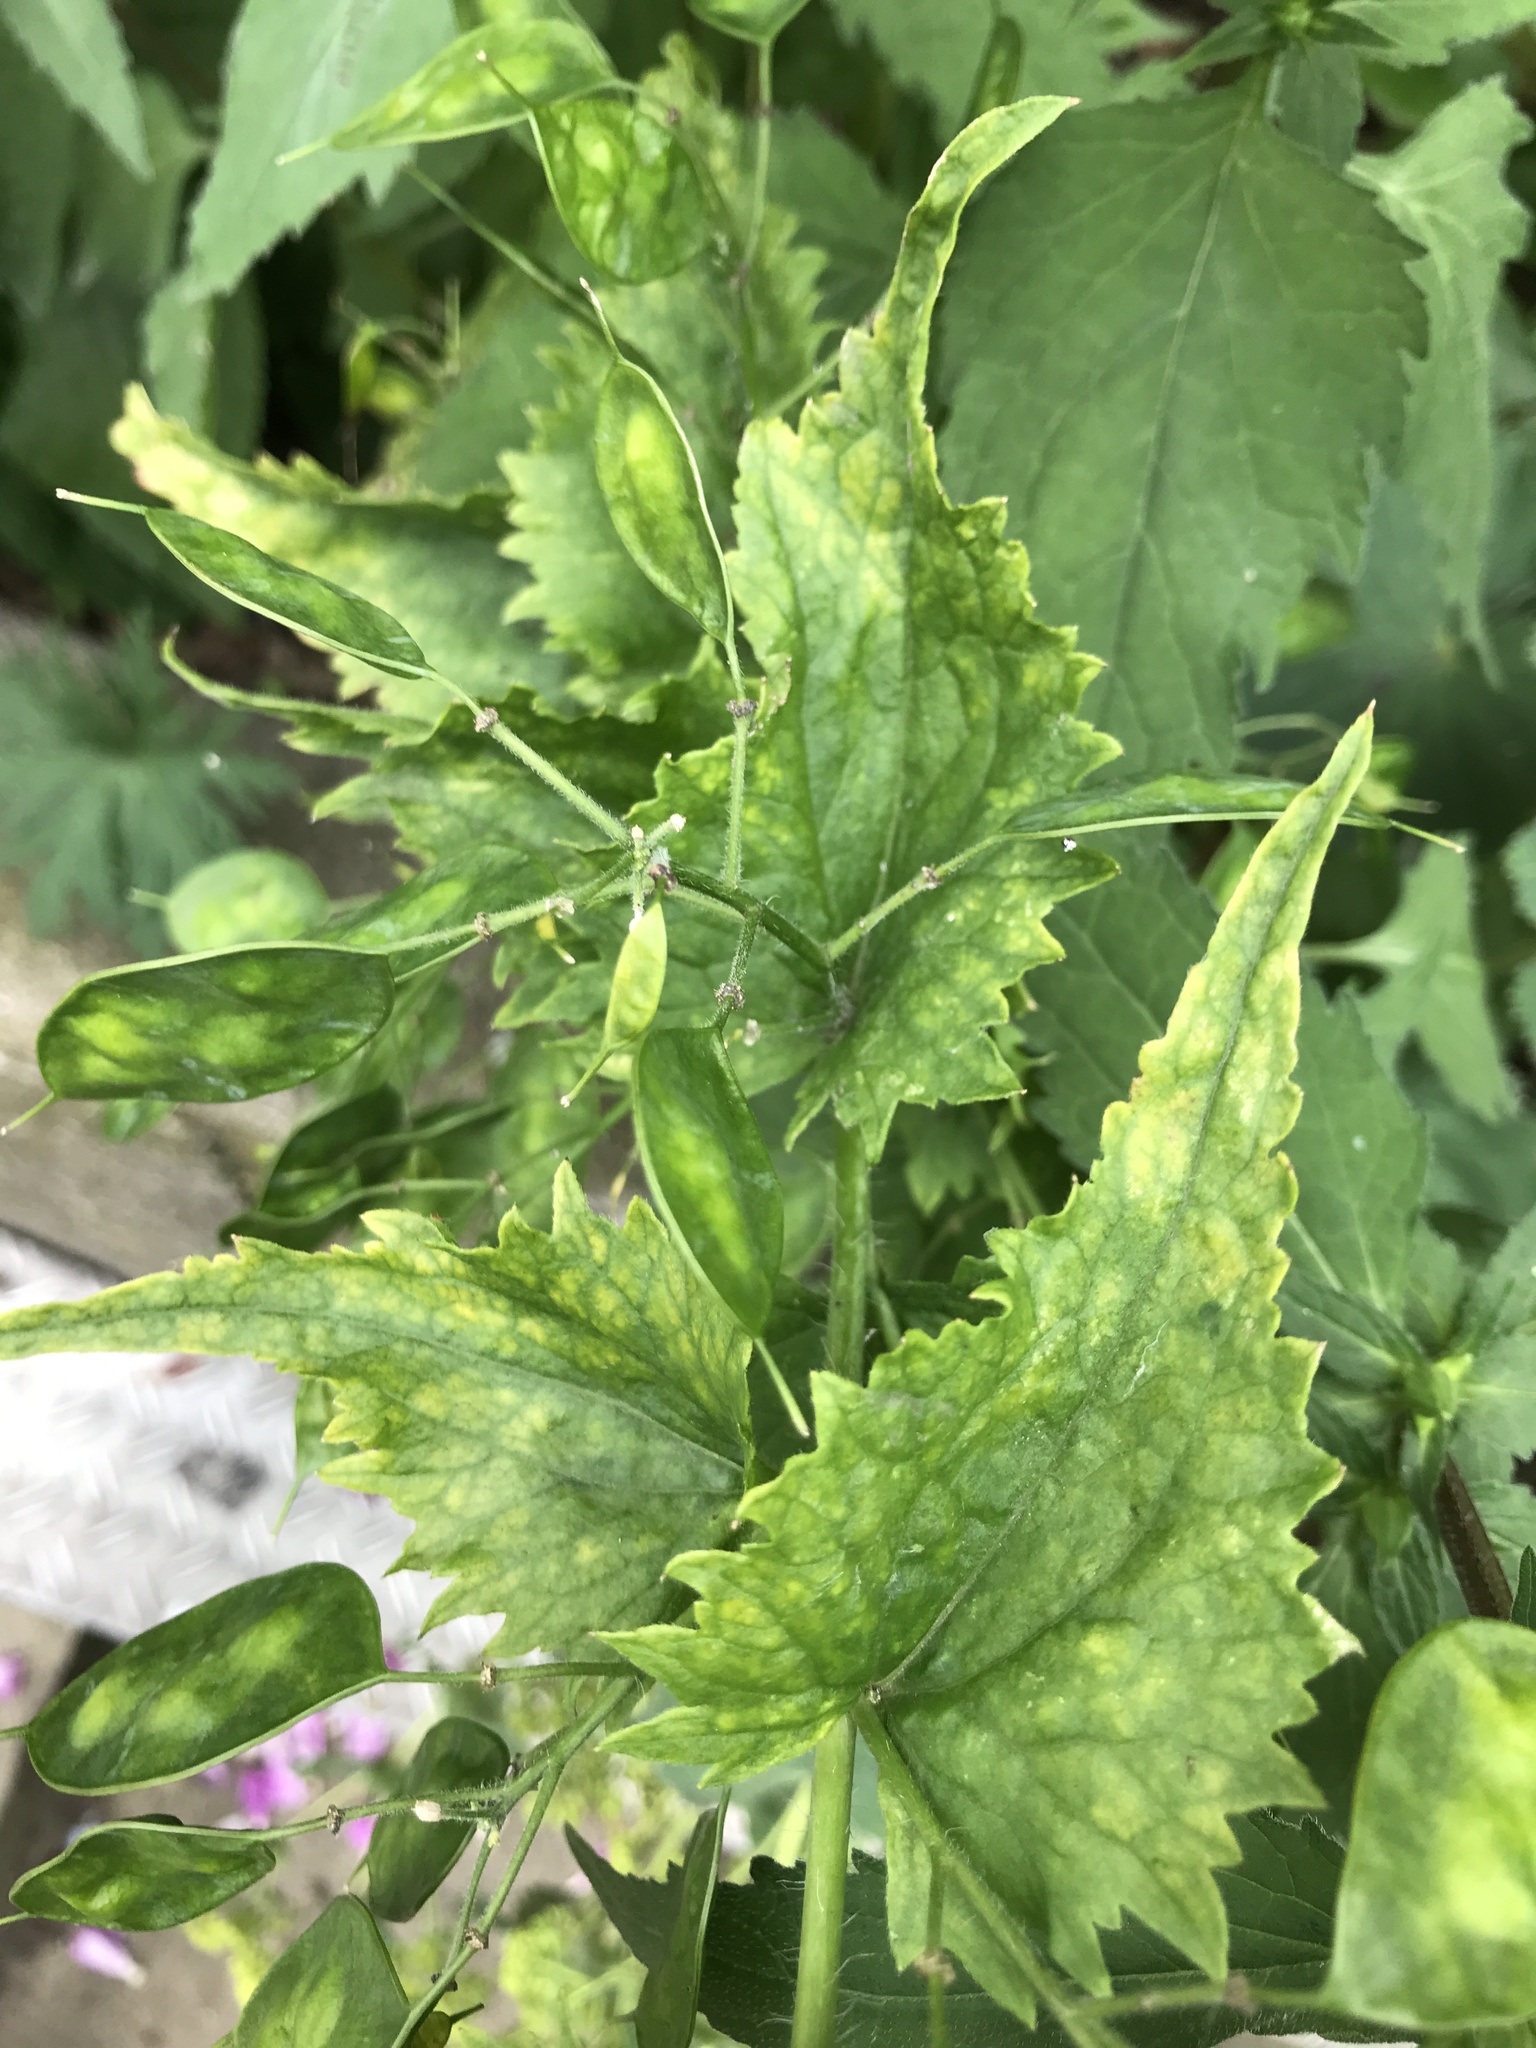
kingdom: Plantae
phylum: Tracheophyta
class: Magnoliopsida
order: Brassicales
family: Brassicaceae
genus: Lunaria
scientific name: Lunaria annua
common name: Honesty
